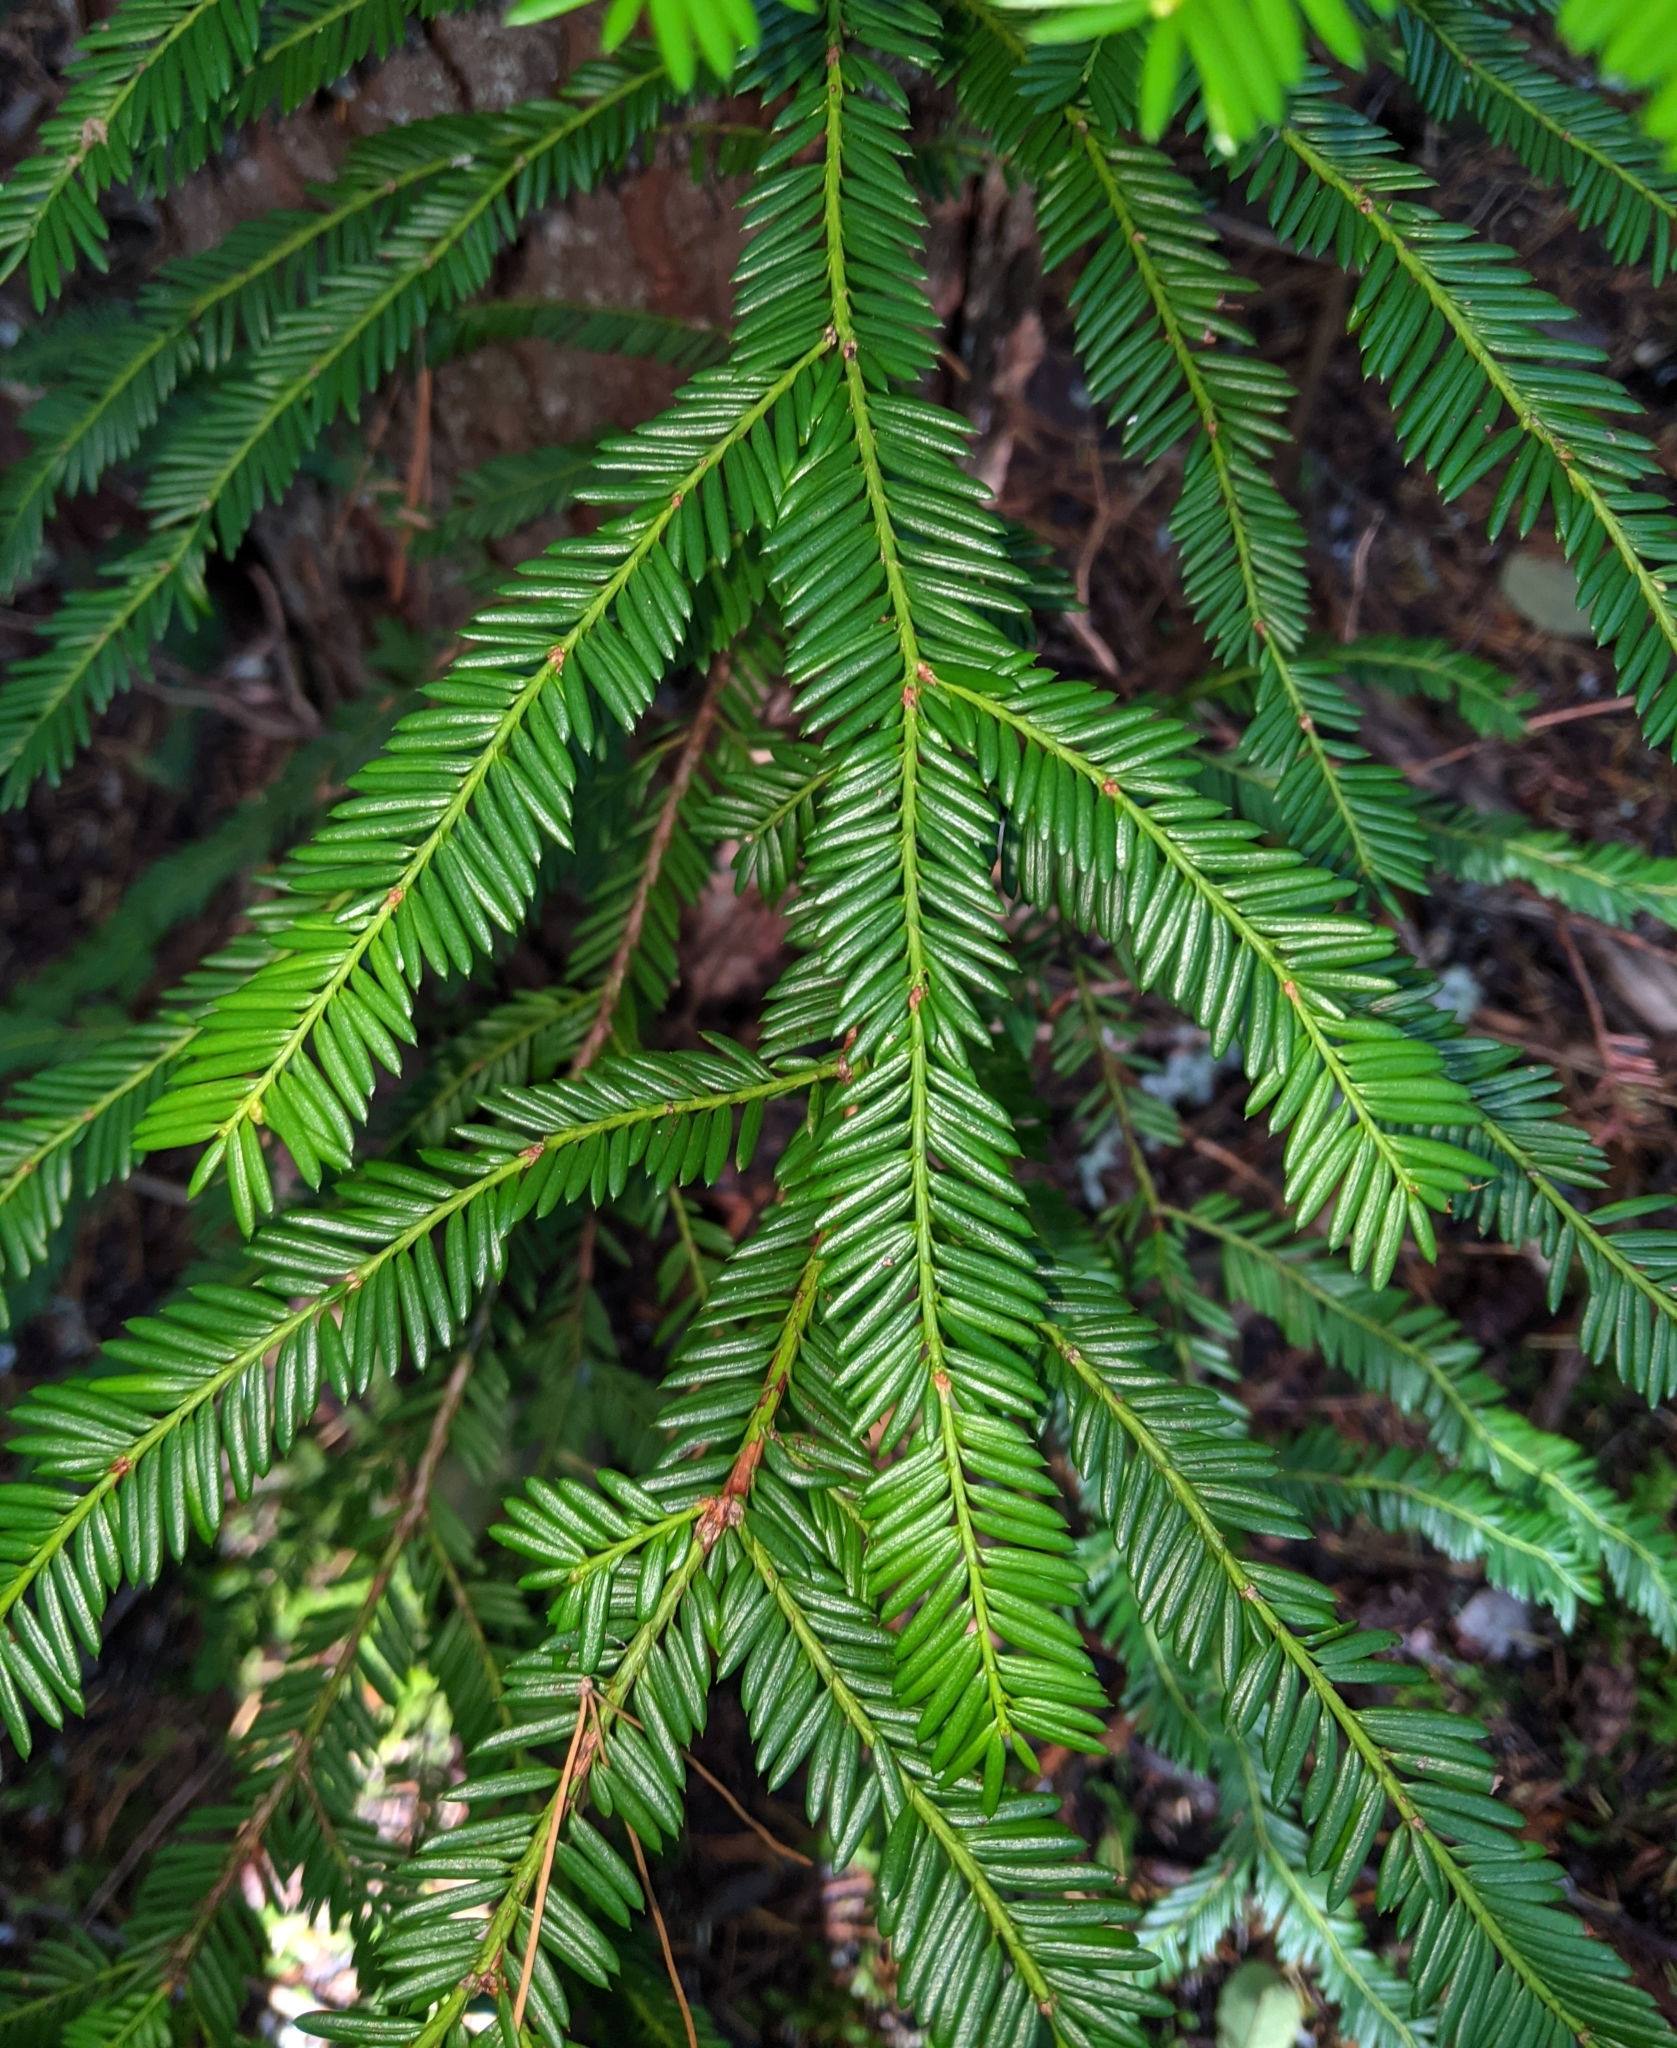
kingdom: Plantae
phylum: Tracheophyta
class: Pinopsida
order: Pinales
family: Taxaceae
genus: Taxus
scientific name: Taxus brevifolia
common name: Pacific yew
